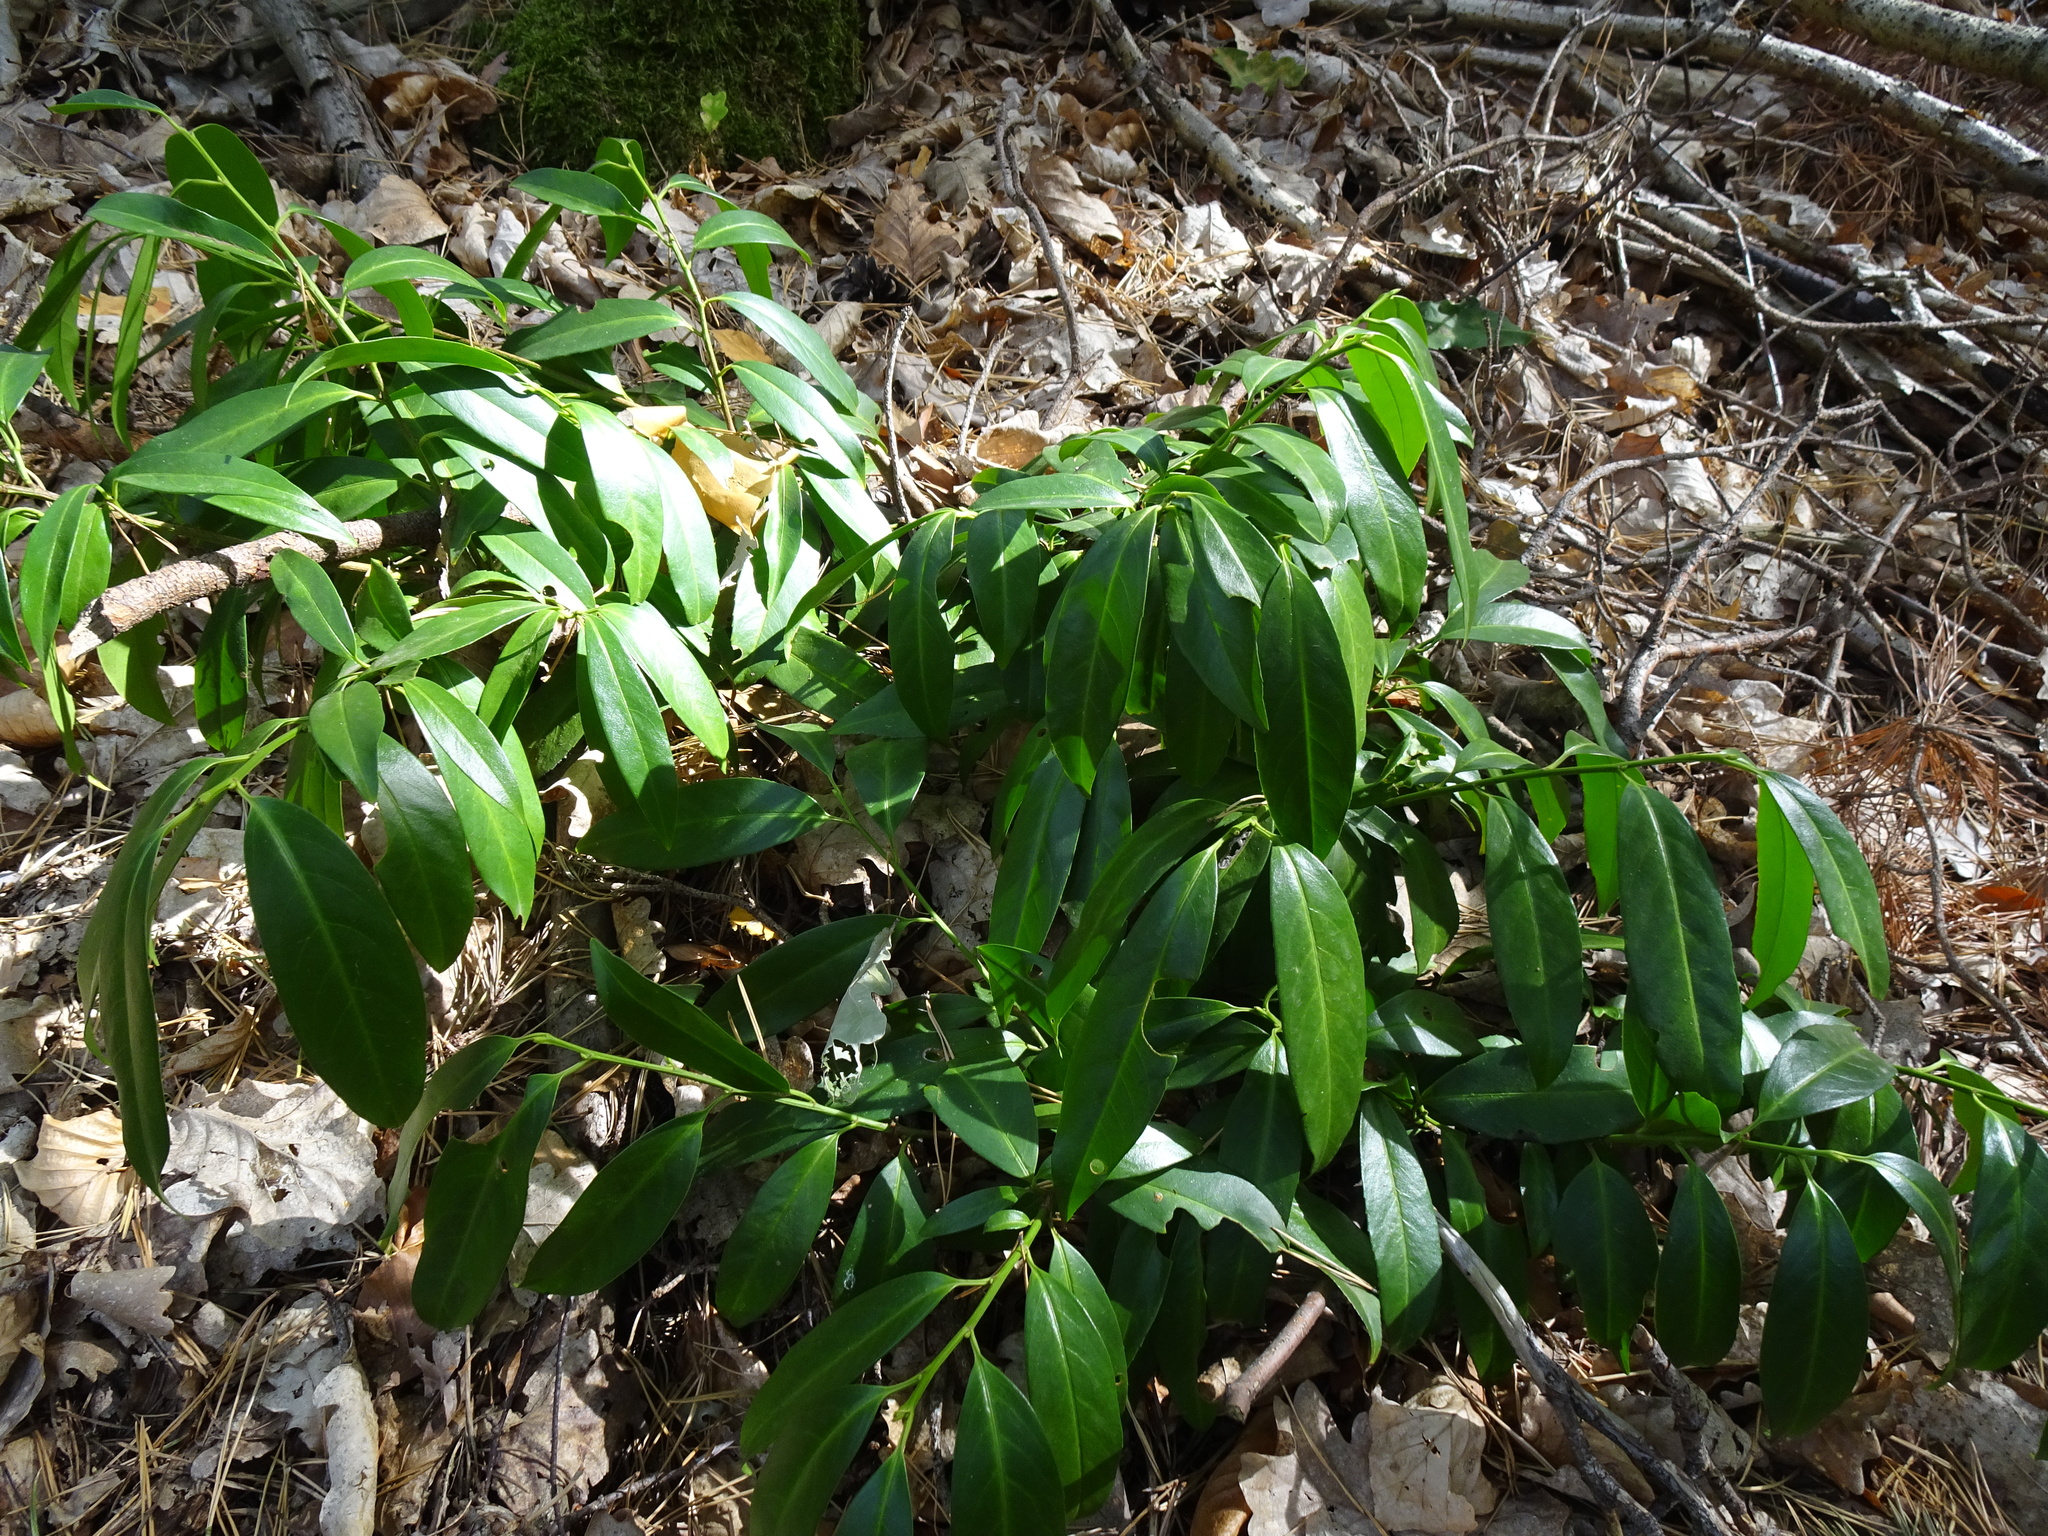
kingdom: Plantae
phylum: Tracheophyta
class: Magnoliopsida
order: Rosales
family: Rosaceae
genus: Prunus
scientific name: Prunus laurocerasus
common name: Cherry laurel
